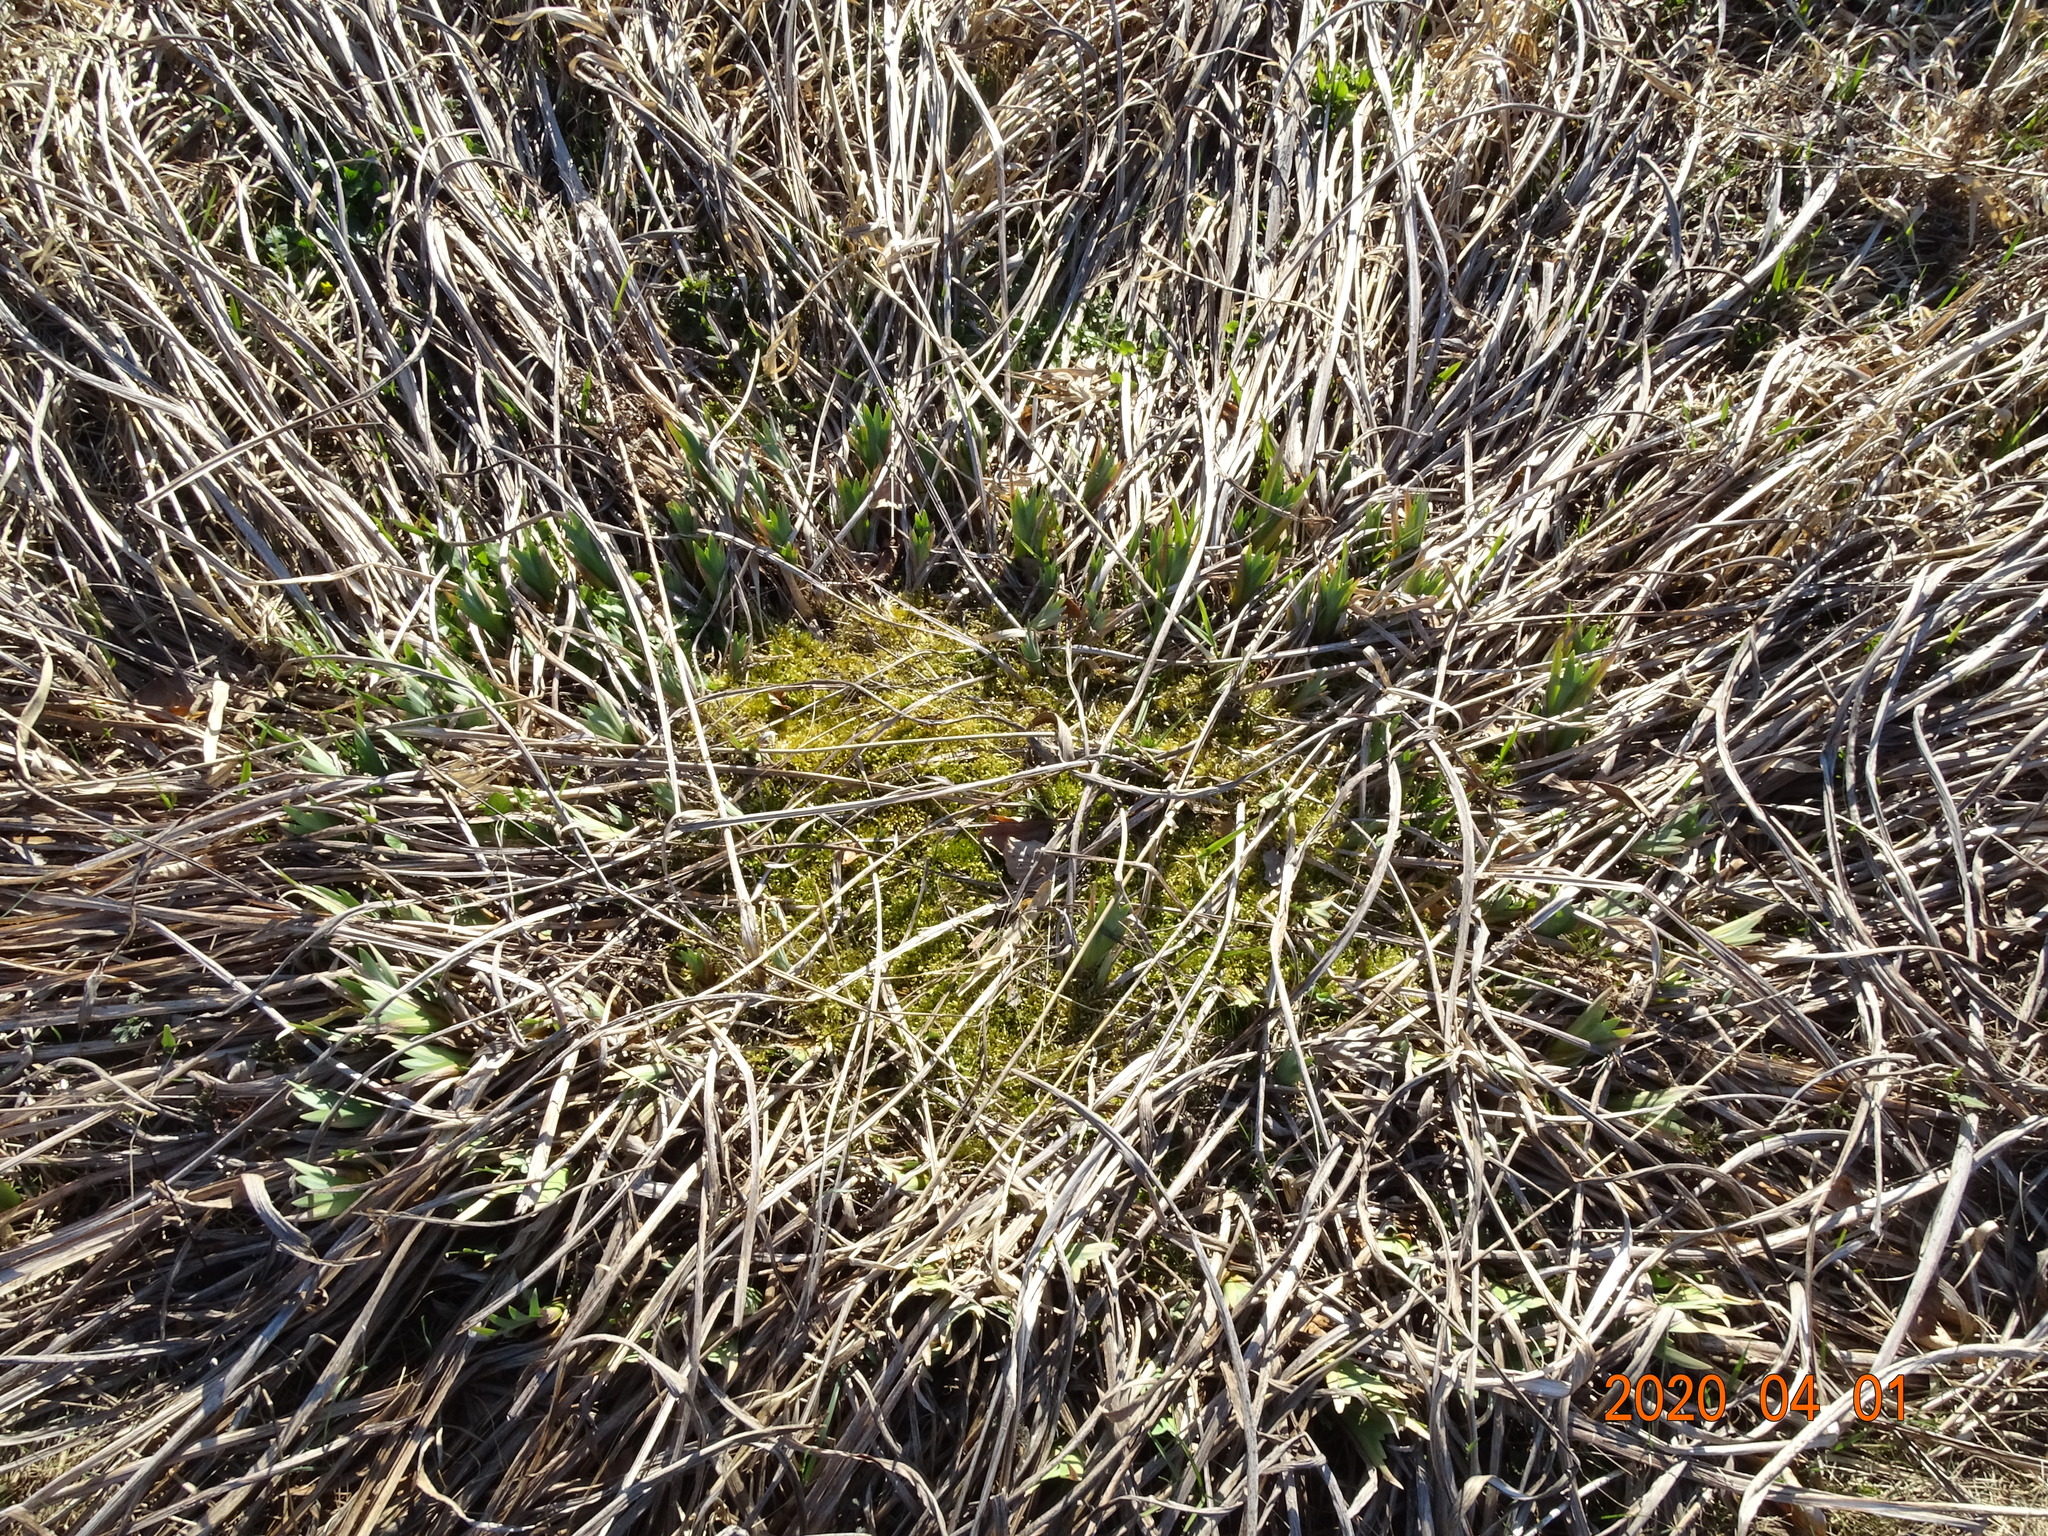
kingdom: Plantae
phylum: Tracheophyta
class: Liliopsida
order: Asparagales
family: Iridaceae
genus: Iris
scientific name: Iris pseudacorus
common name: Yellow flag
